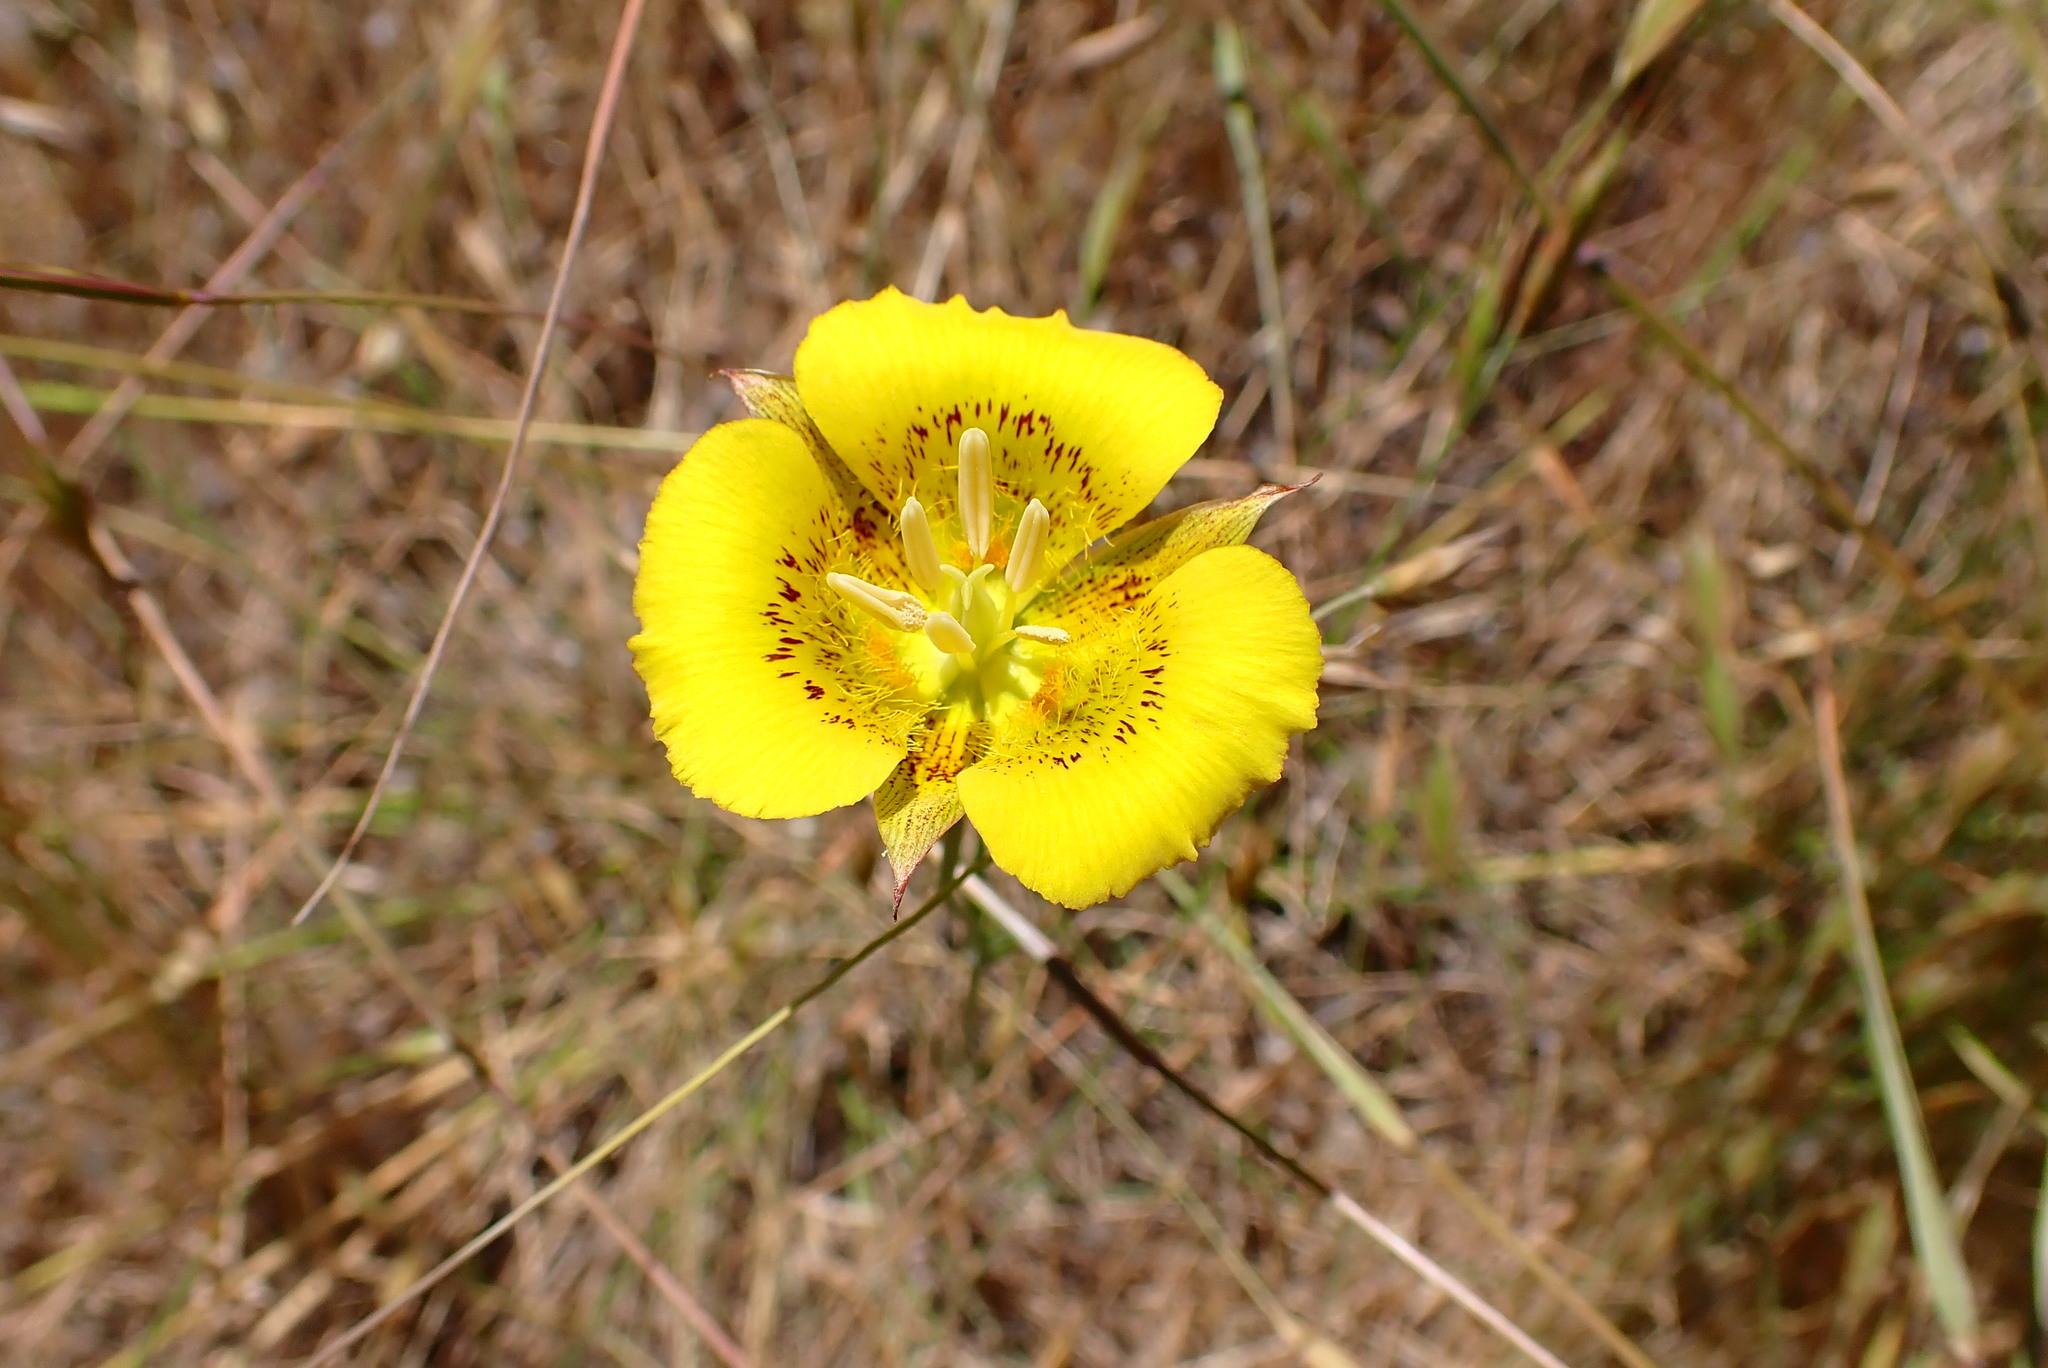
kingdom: Plantae
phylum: Tracheophyta
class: Liliopsida
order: Liliales
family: Liliaceae
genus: Calochortus
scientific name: Calochortus luteus
